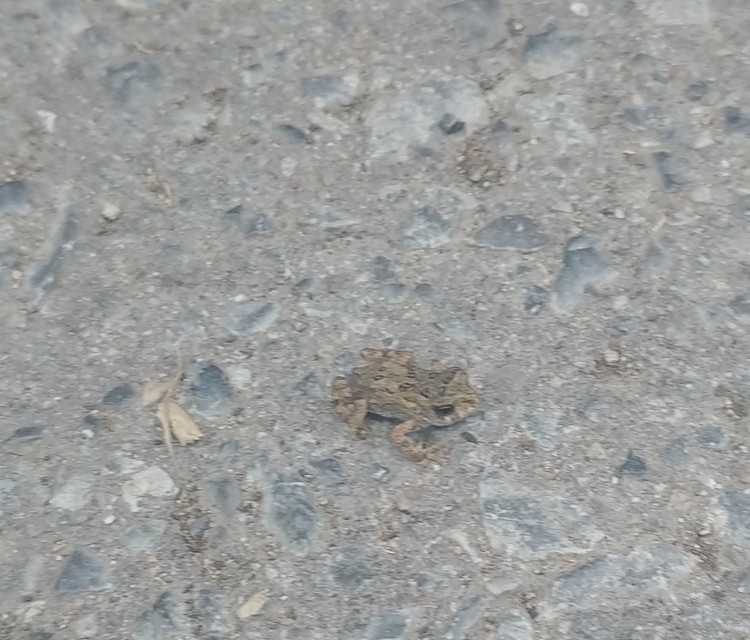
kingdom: Animalia
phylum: Chordata
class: Amphibia
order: Anura
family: Bufonidae
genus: Anaxyrus
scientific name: Anaxyrus americanus
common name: American toad
